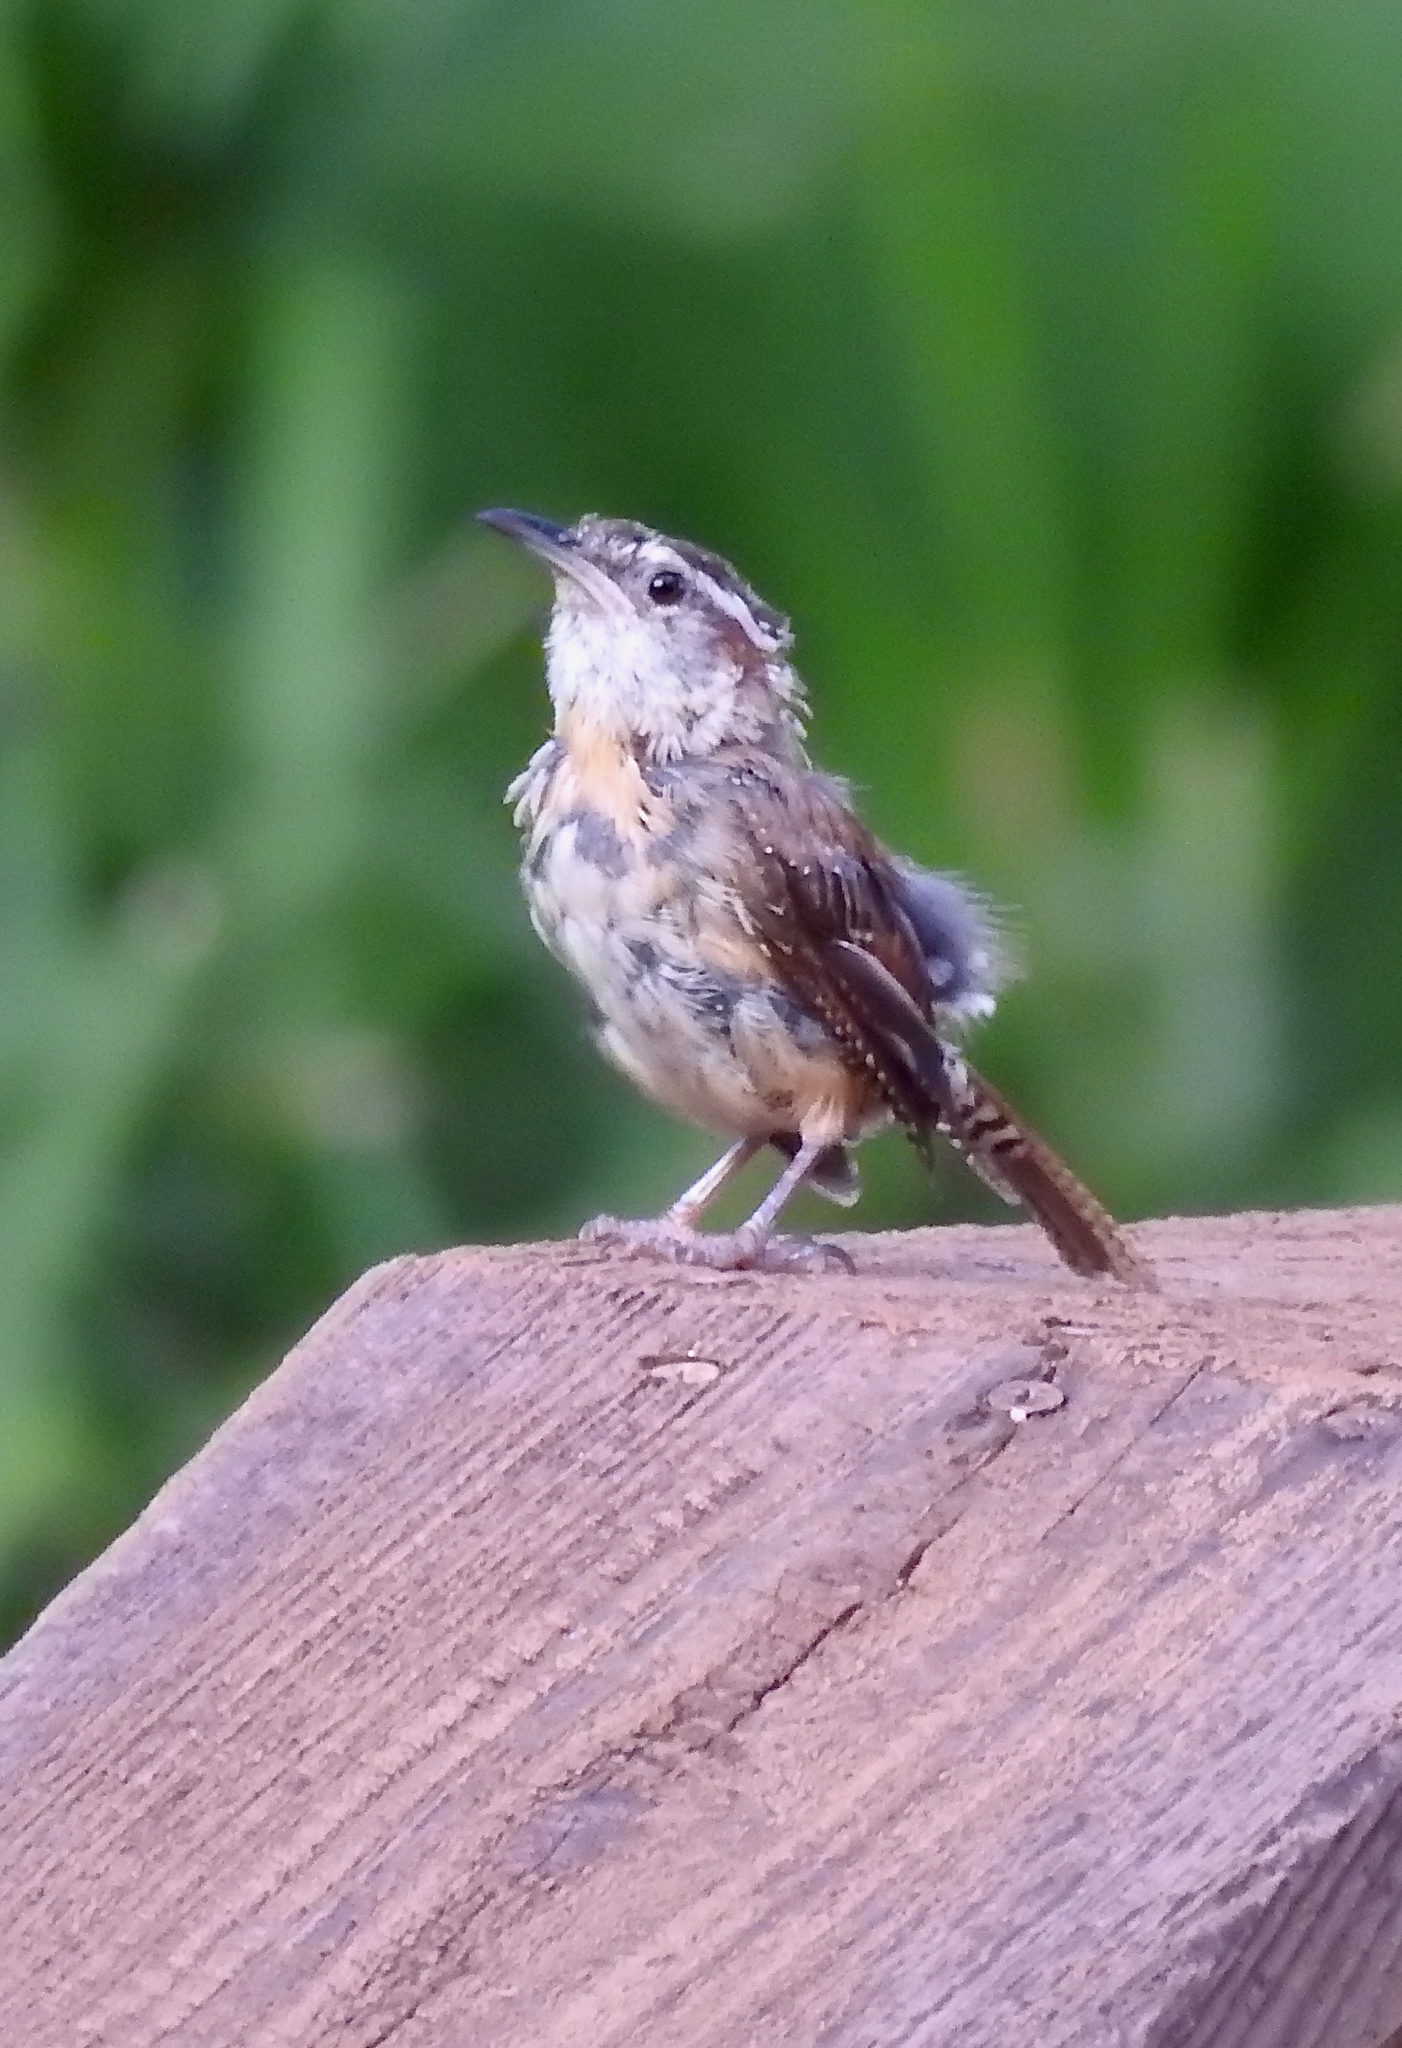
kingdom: Animalia
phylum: Chordata
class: Aves
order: Passeriformes
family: Troglodytidae
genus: Thryothorus
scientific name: Thryothorus ludovicianus
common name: Carolina wren
